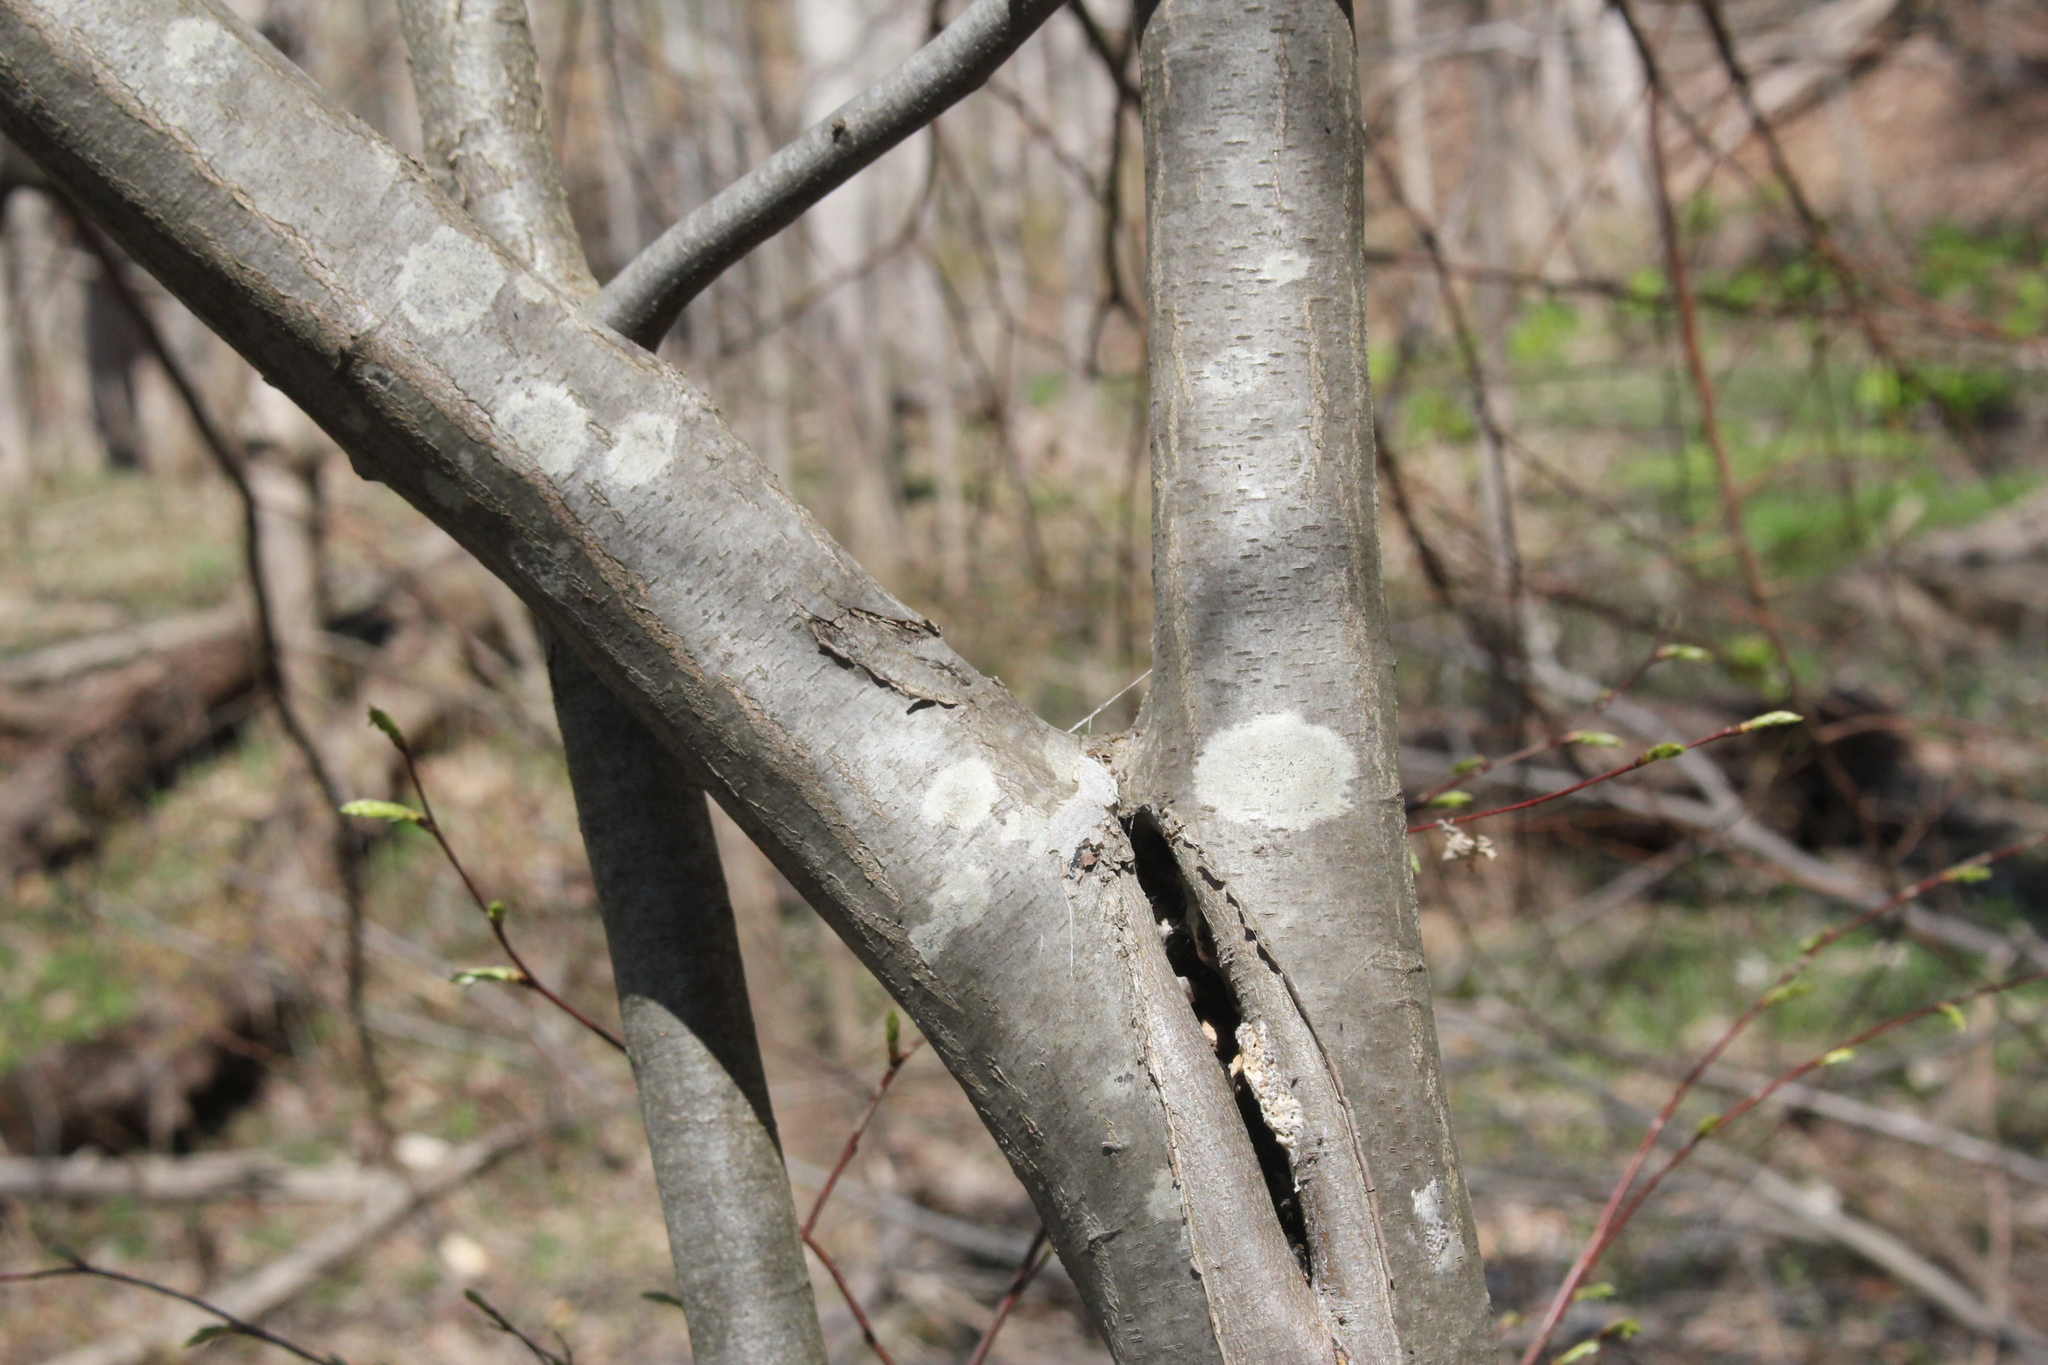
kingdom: Plantae
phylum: Tracheophyta
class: Magnoliopsida
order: Fagales
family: Betulaceae
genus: Carpinus
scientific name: Carpinus caroliniana
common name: American hornbeam
